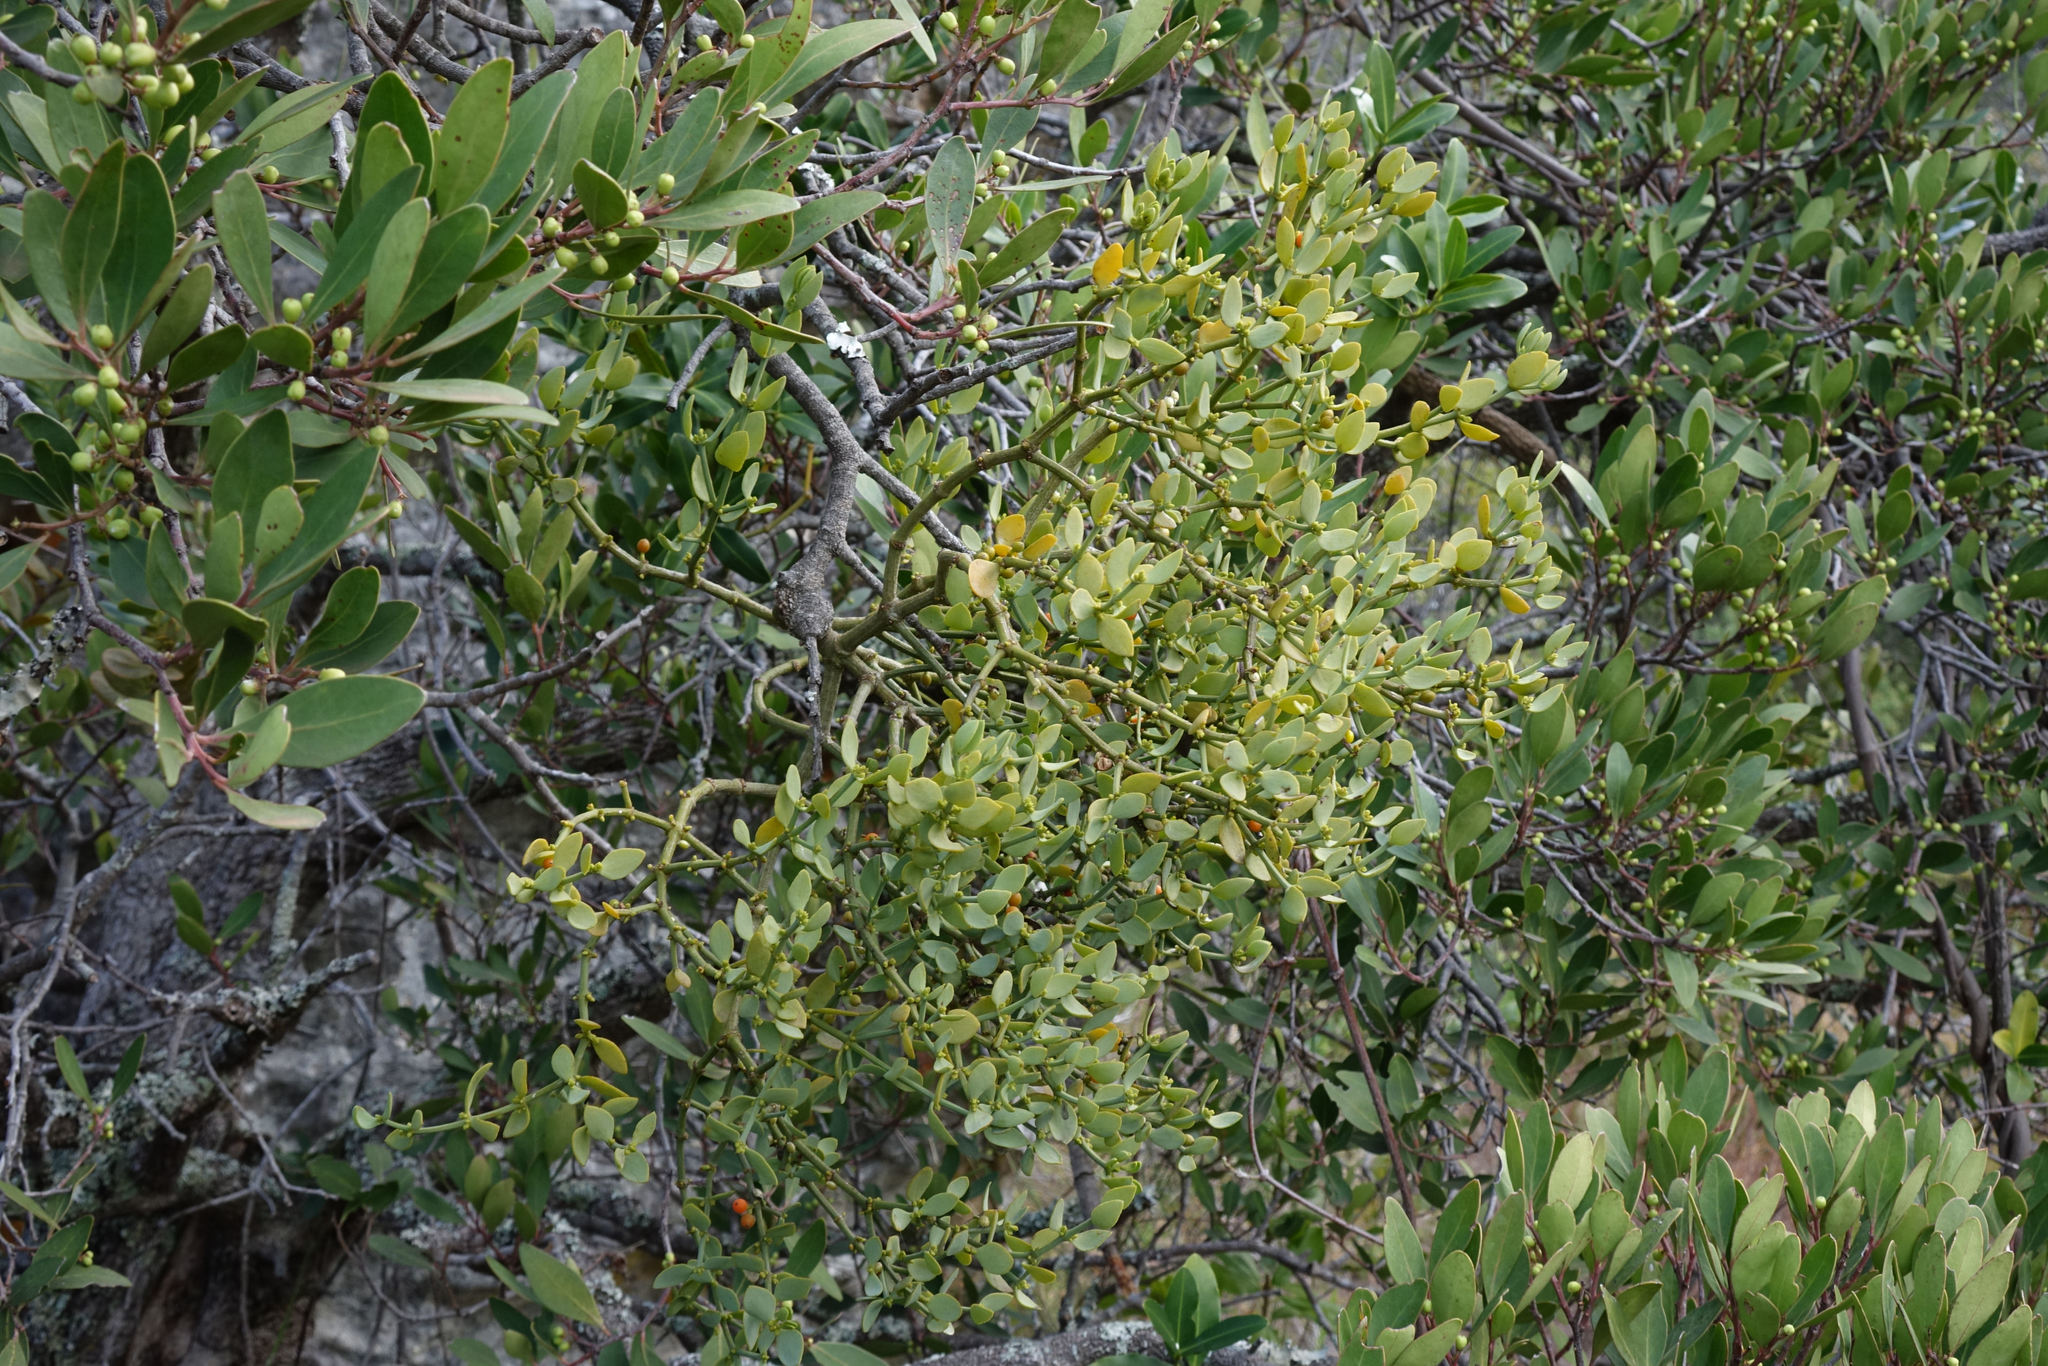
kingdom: Plantae
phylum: Tracheophyta
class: Magnoliopsida
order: Santalales
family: Viscaceae
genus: Viscum
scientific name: Viscum pauciflorum
